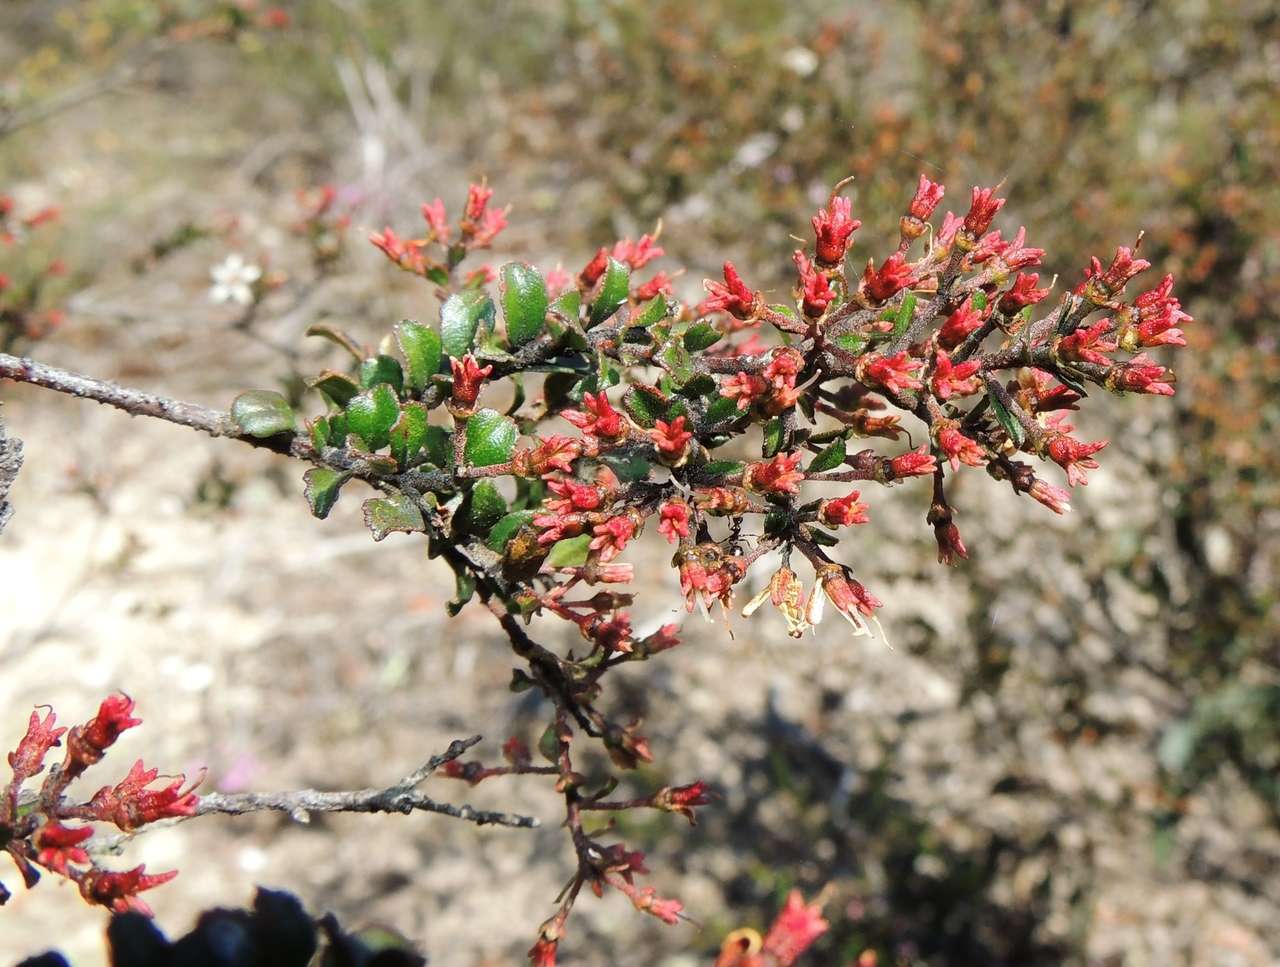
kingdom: Plantae
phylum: Tracheophyta
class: Magnoliopsida
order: Sapindales
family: Rutaceae
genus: Leionema
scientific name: Leionema lamprophyllum
